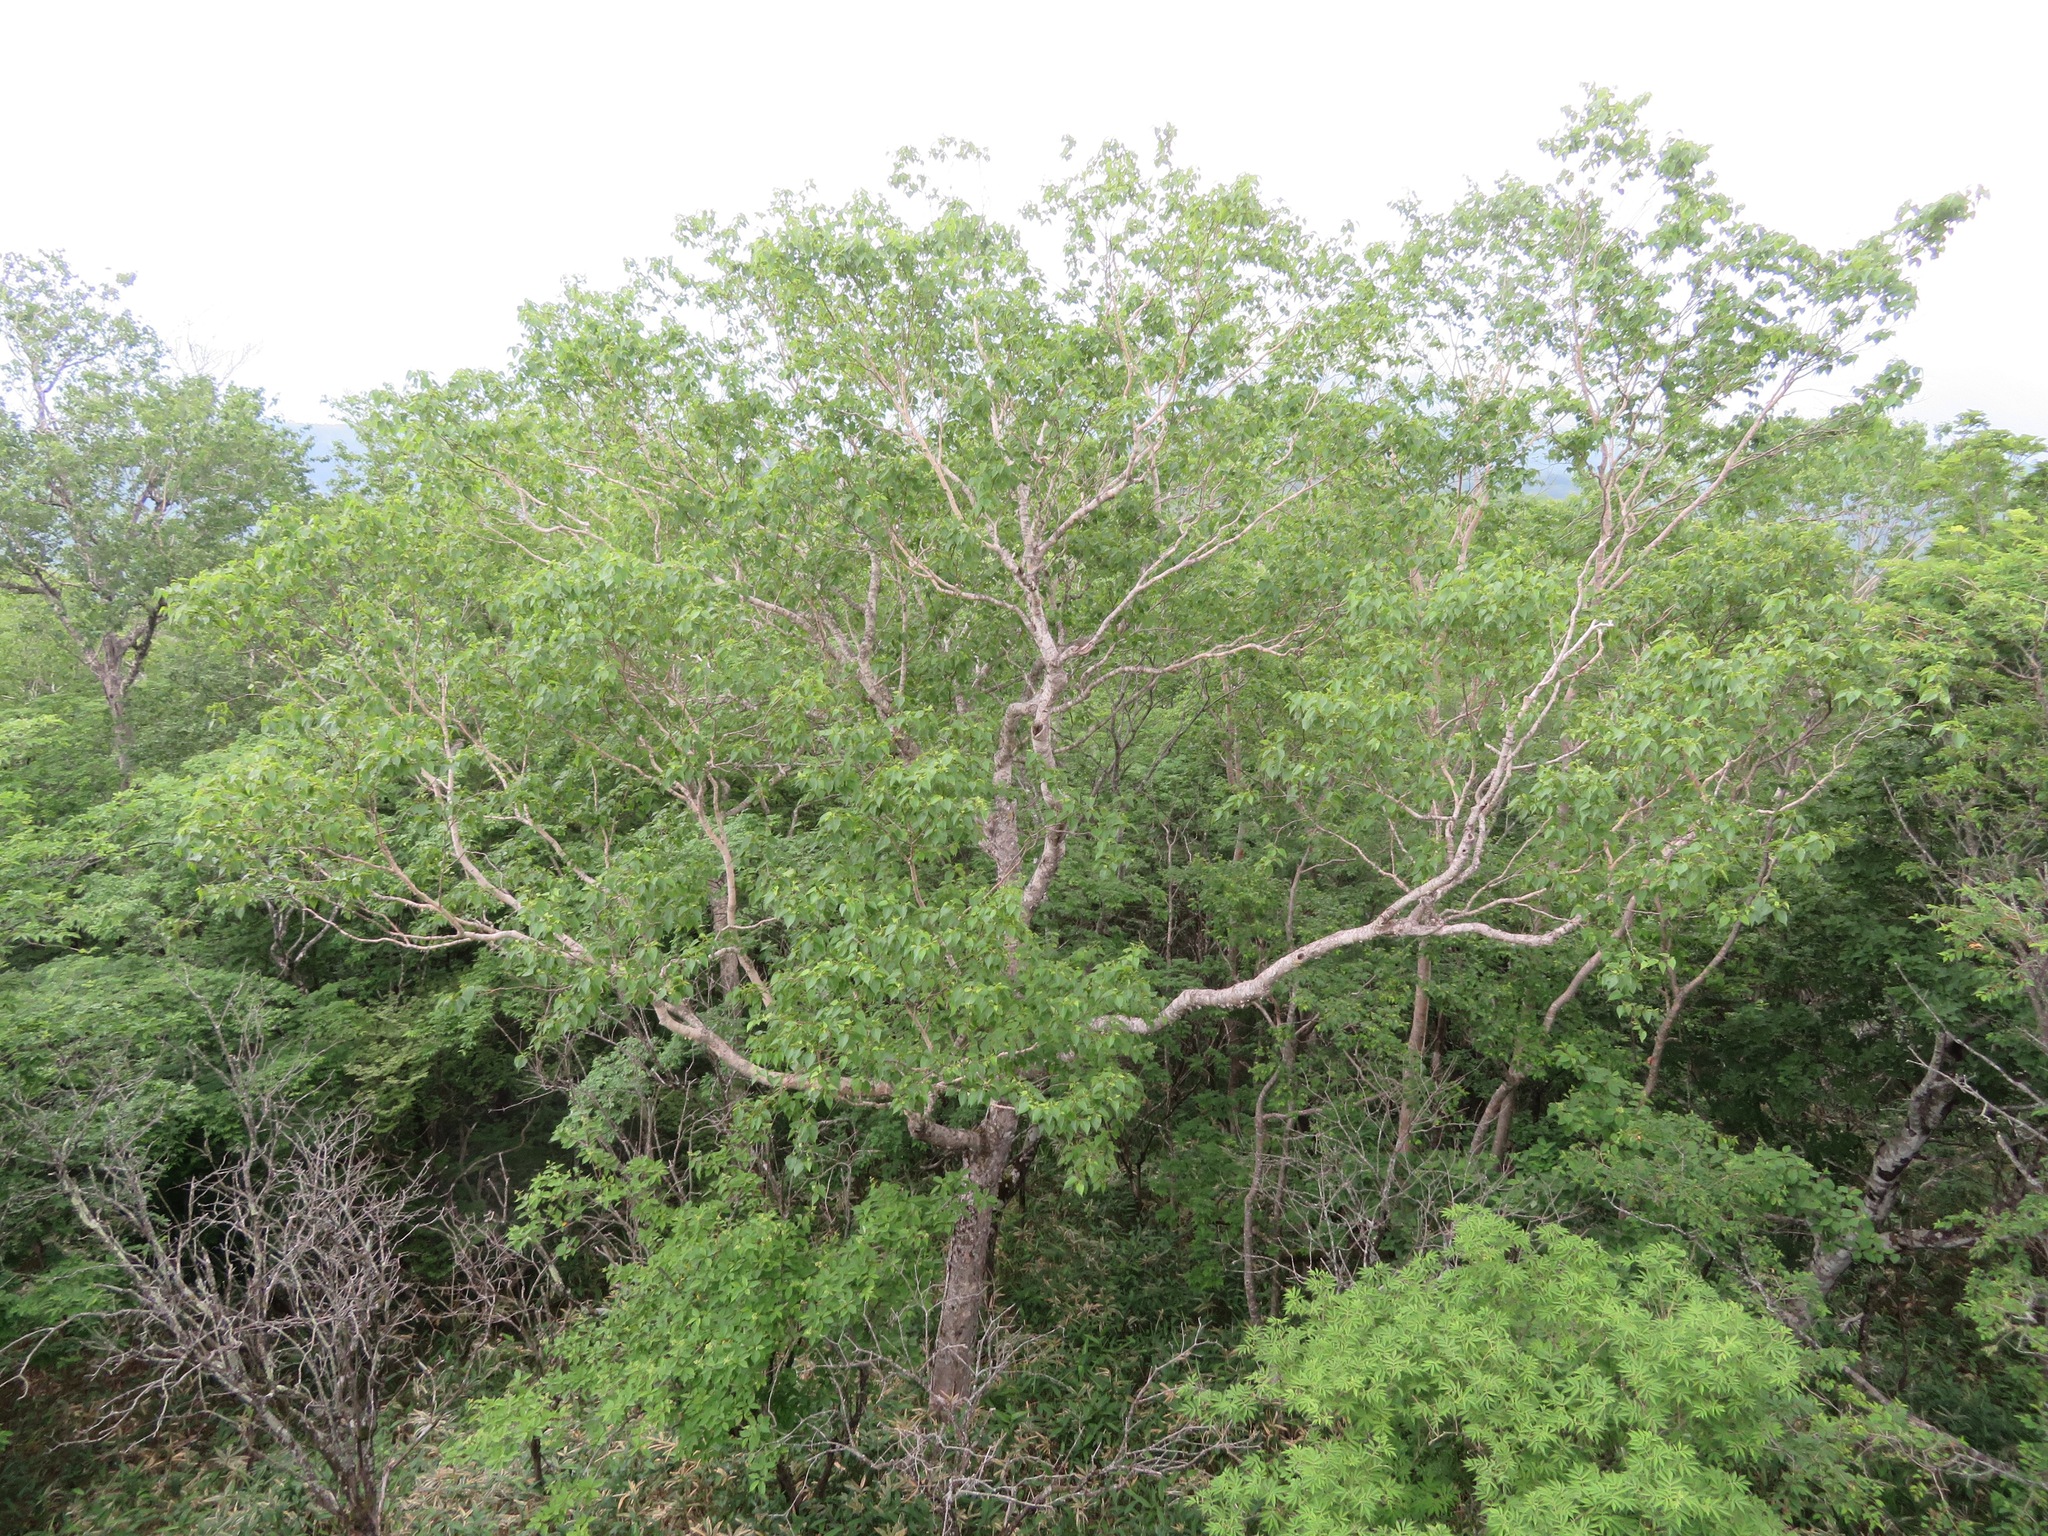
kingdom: Plantae
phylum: Tracheophyta
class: Magnoliopsida
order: Fagales
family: Betulaceae
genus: Betula
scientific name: Betula ermanii
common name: Erman's birch
